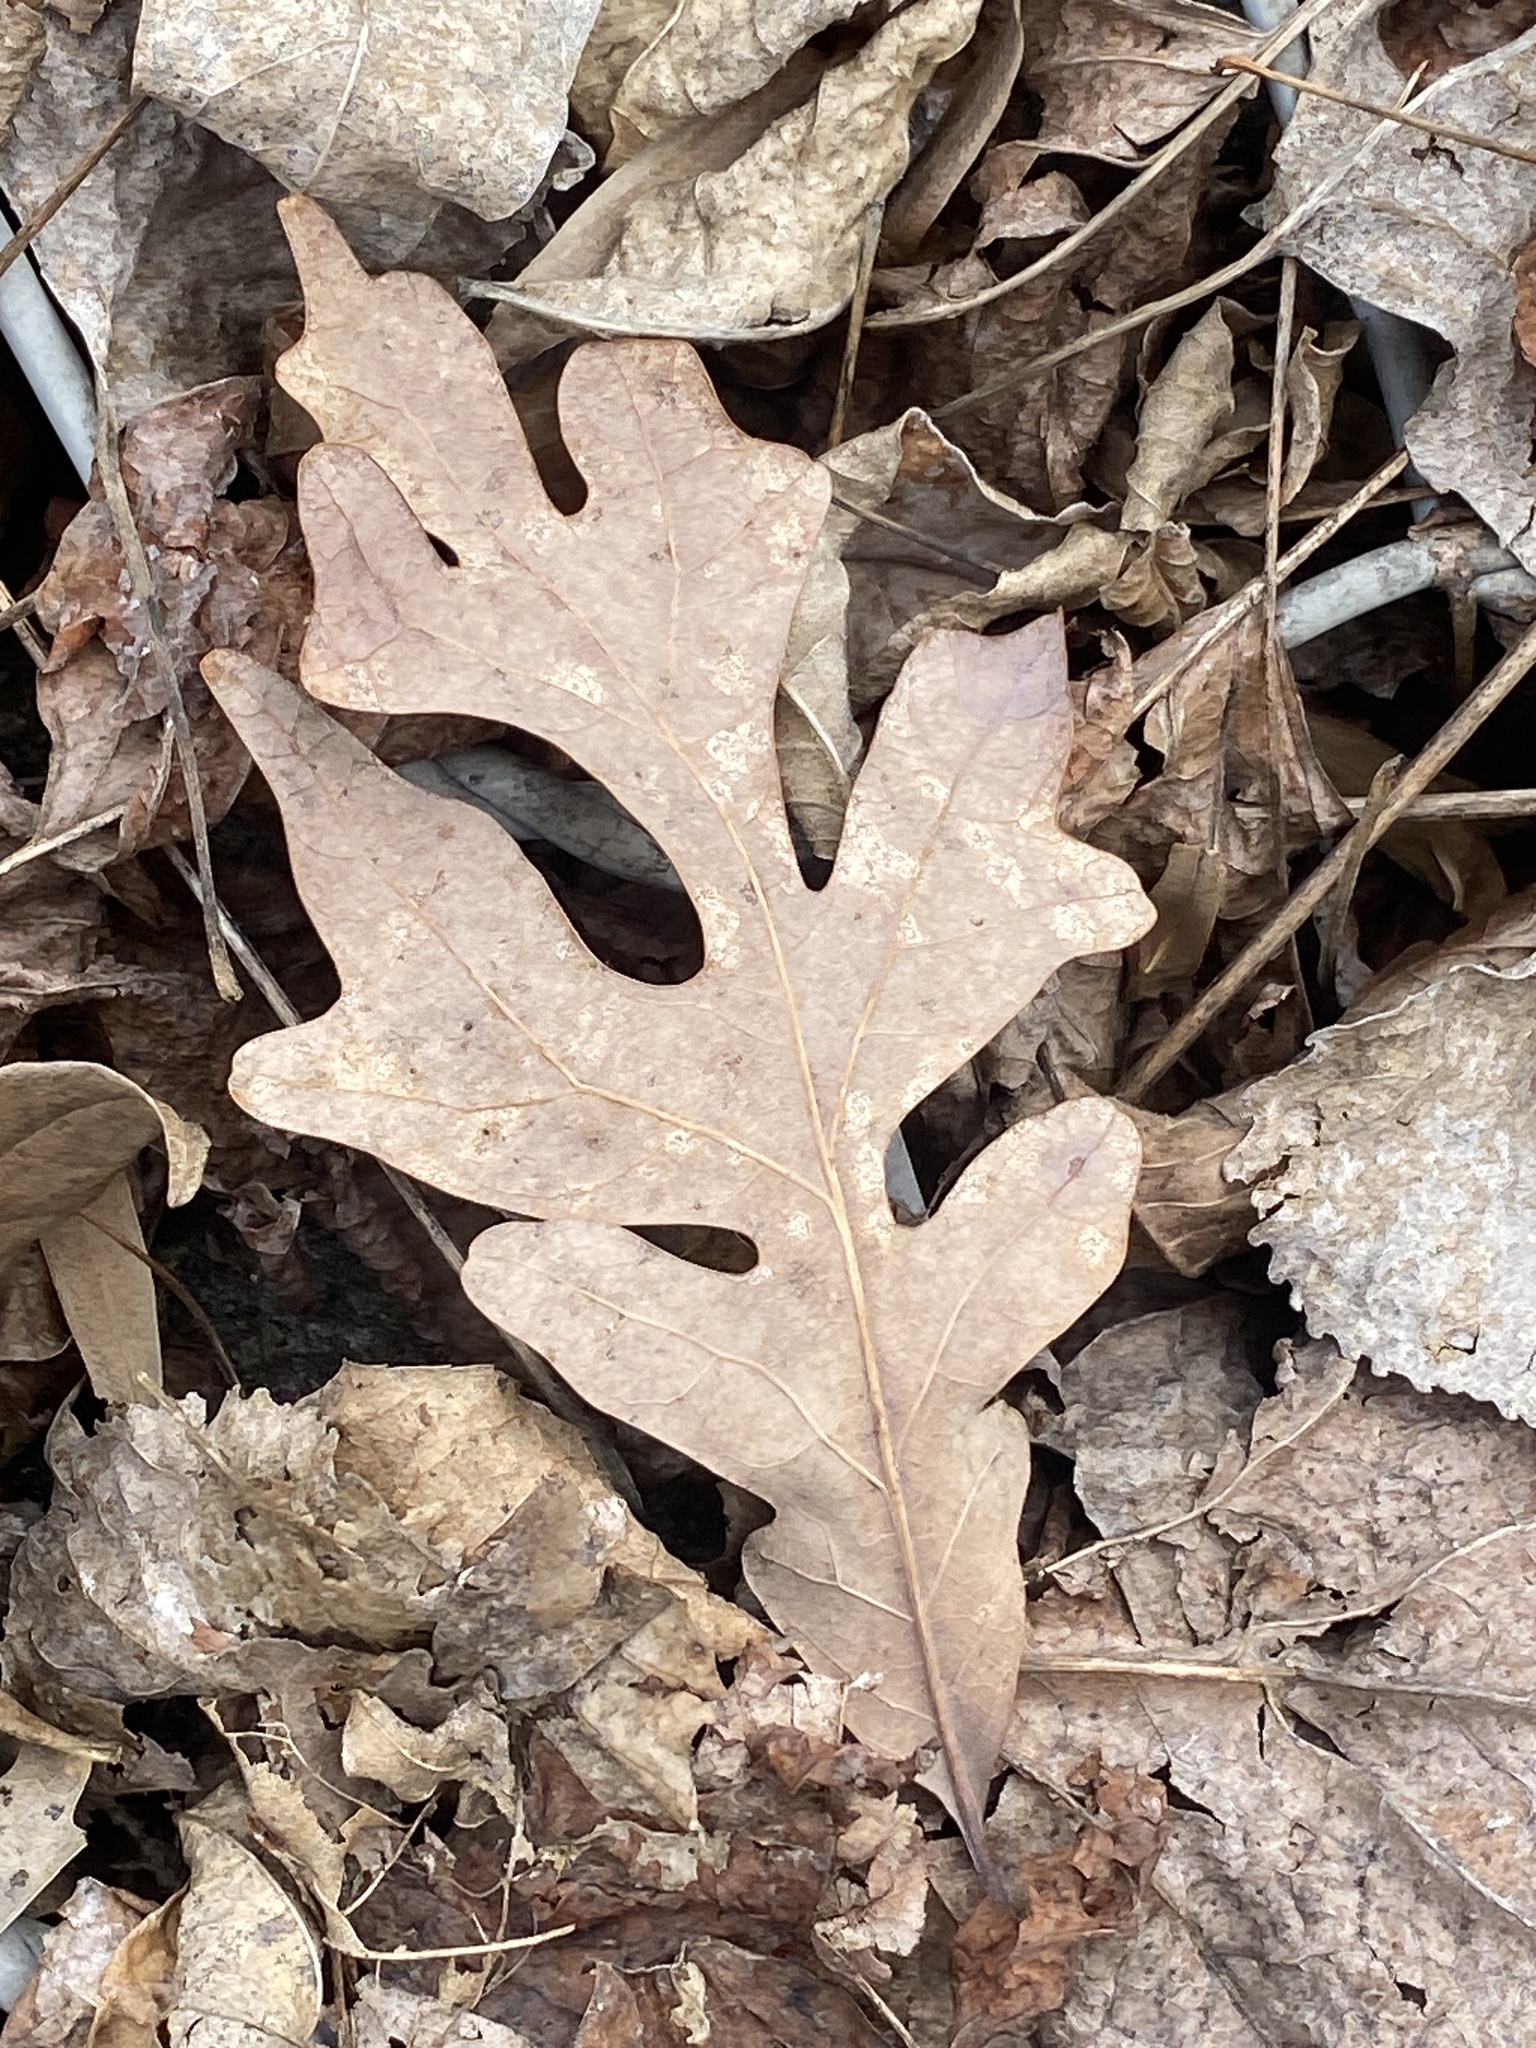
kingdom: Plantae
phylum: Tracheophyta
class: Magnoliopsida
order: Fagales
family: Fagaceae
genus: Quercus
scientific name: Quercus alba
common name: White oak
